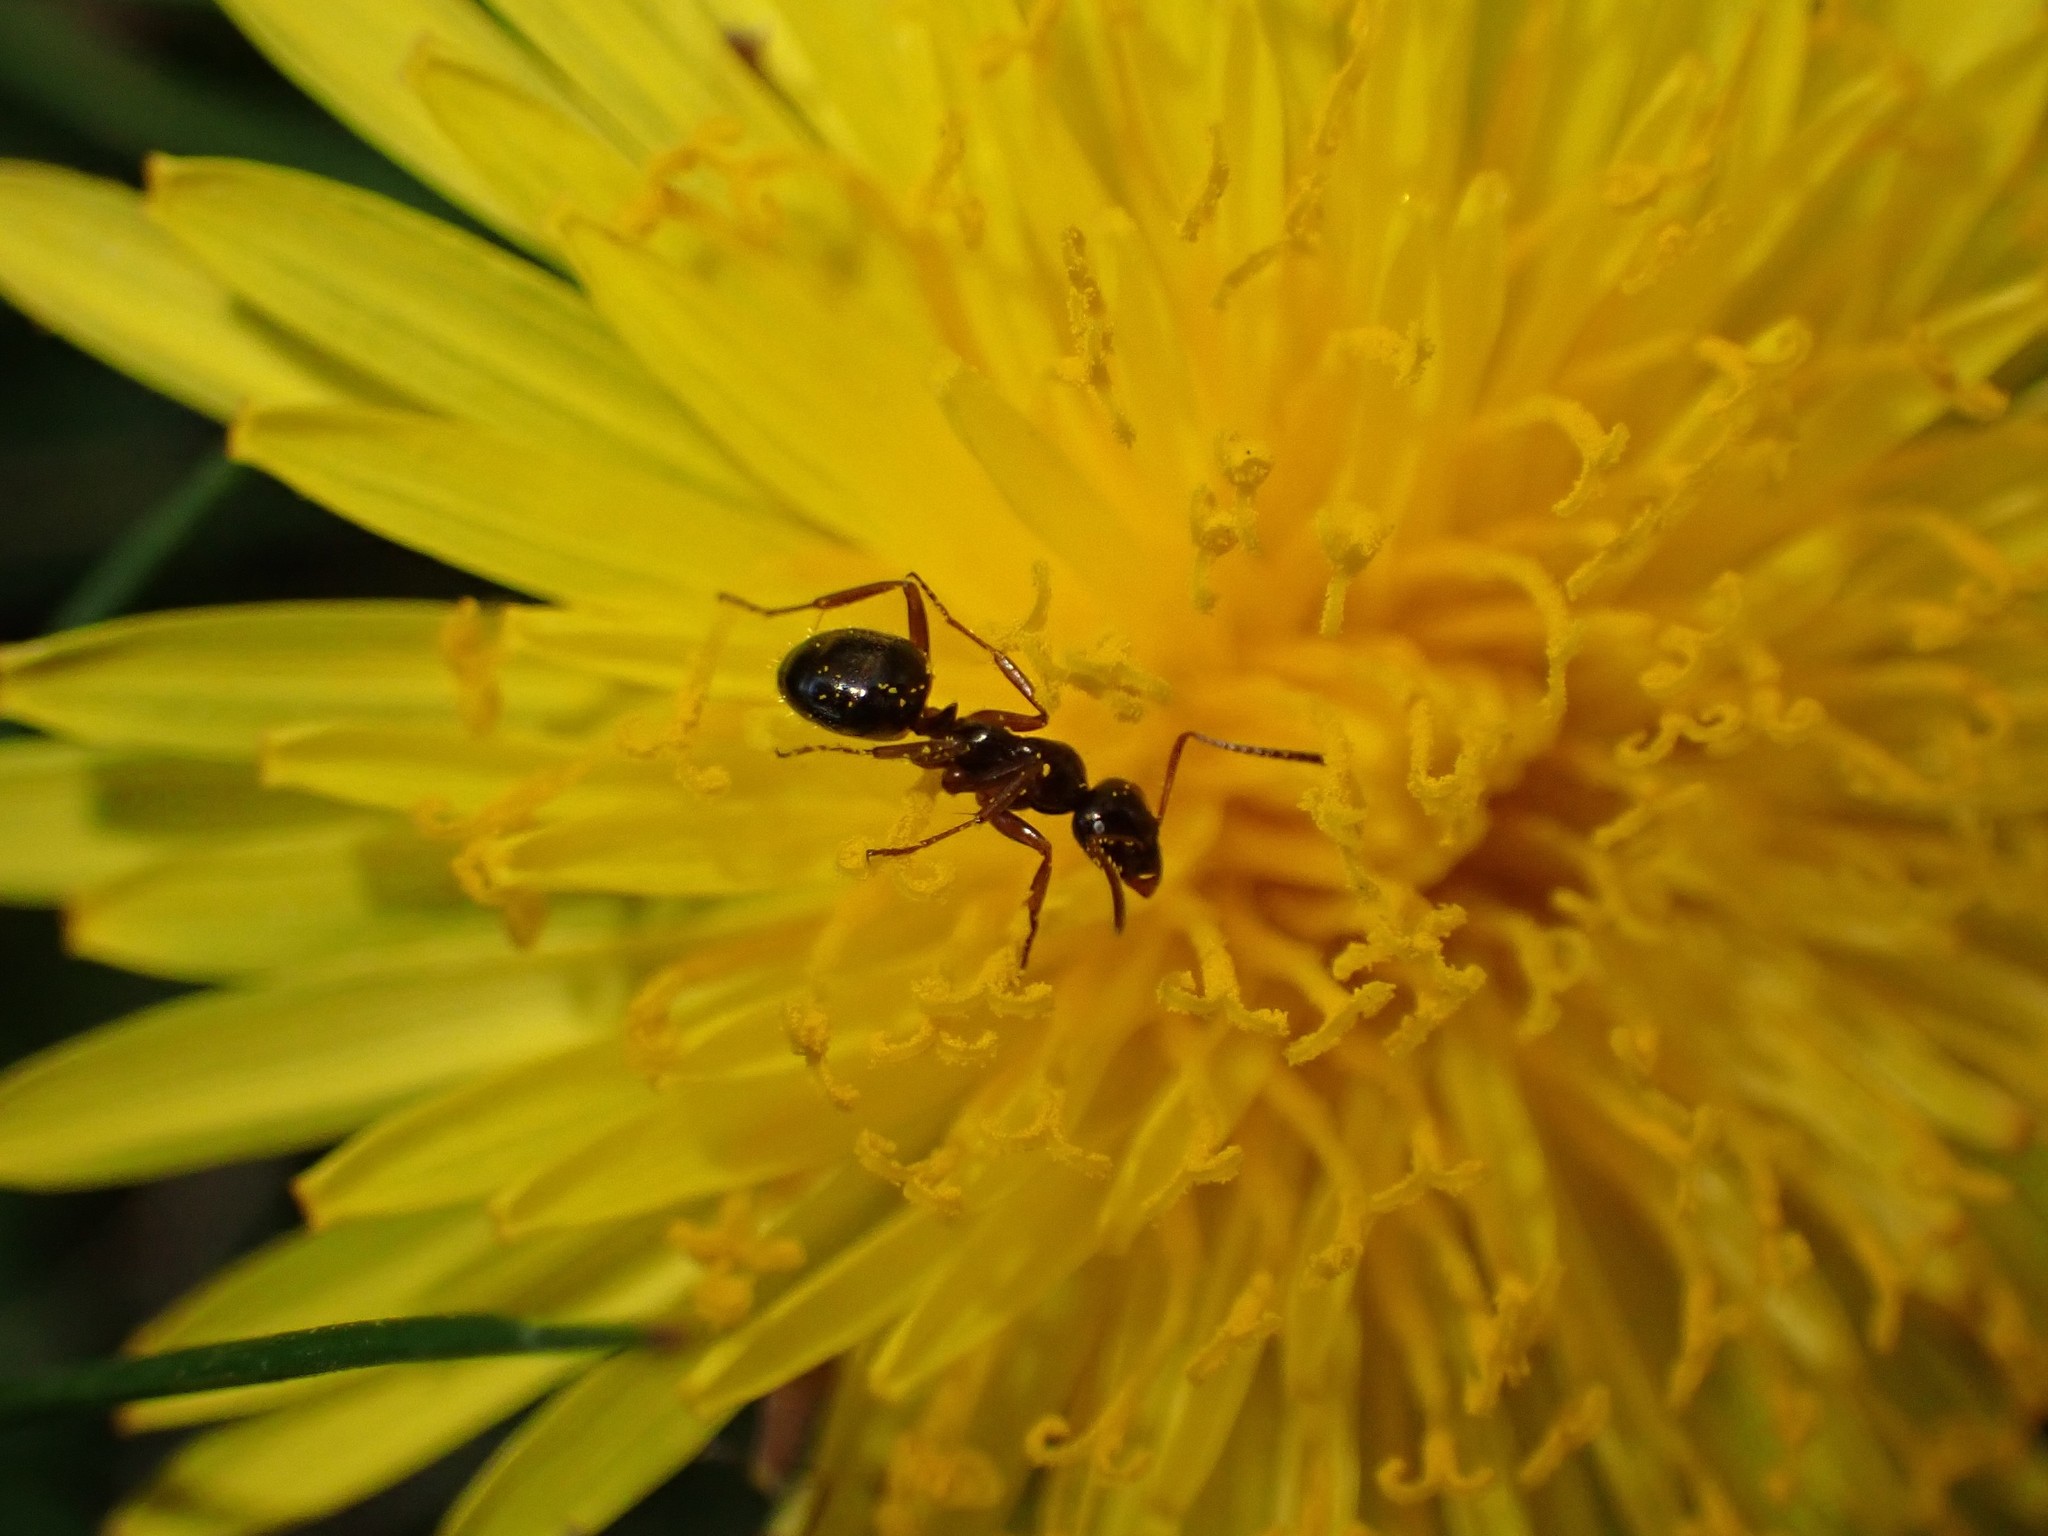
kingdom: Animalia
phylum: Arthropoda
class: Insecta
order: Hymenoptera
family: Formicidae
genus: Formica
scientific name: Formica
